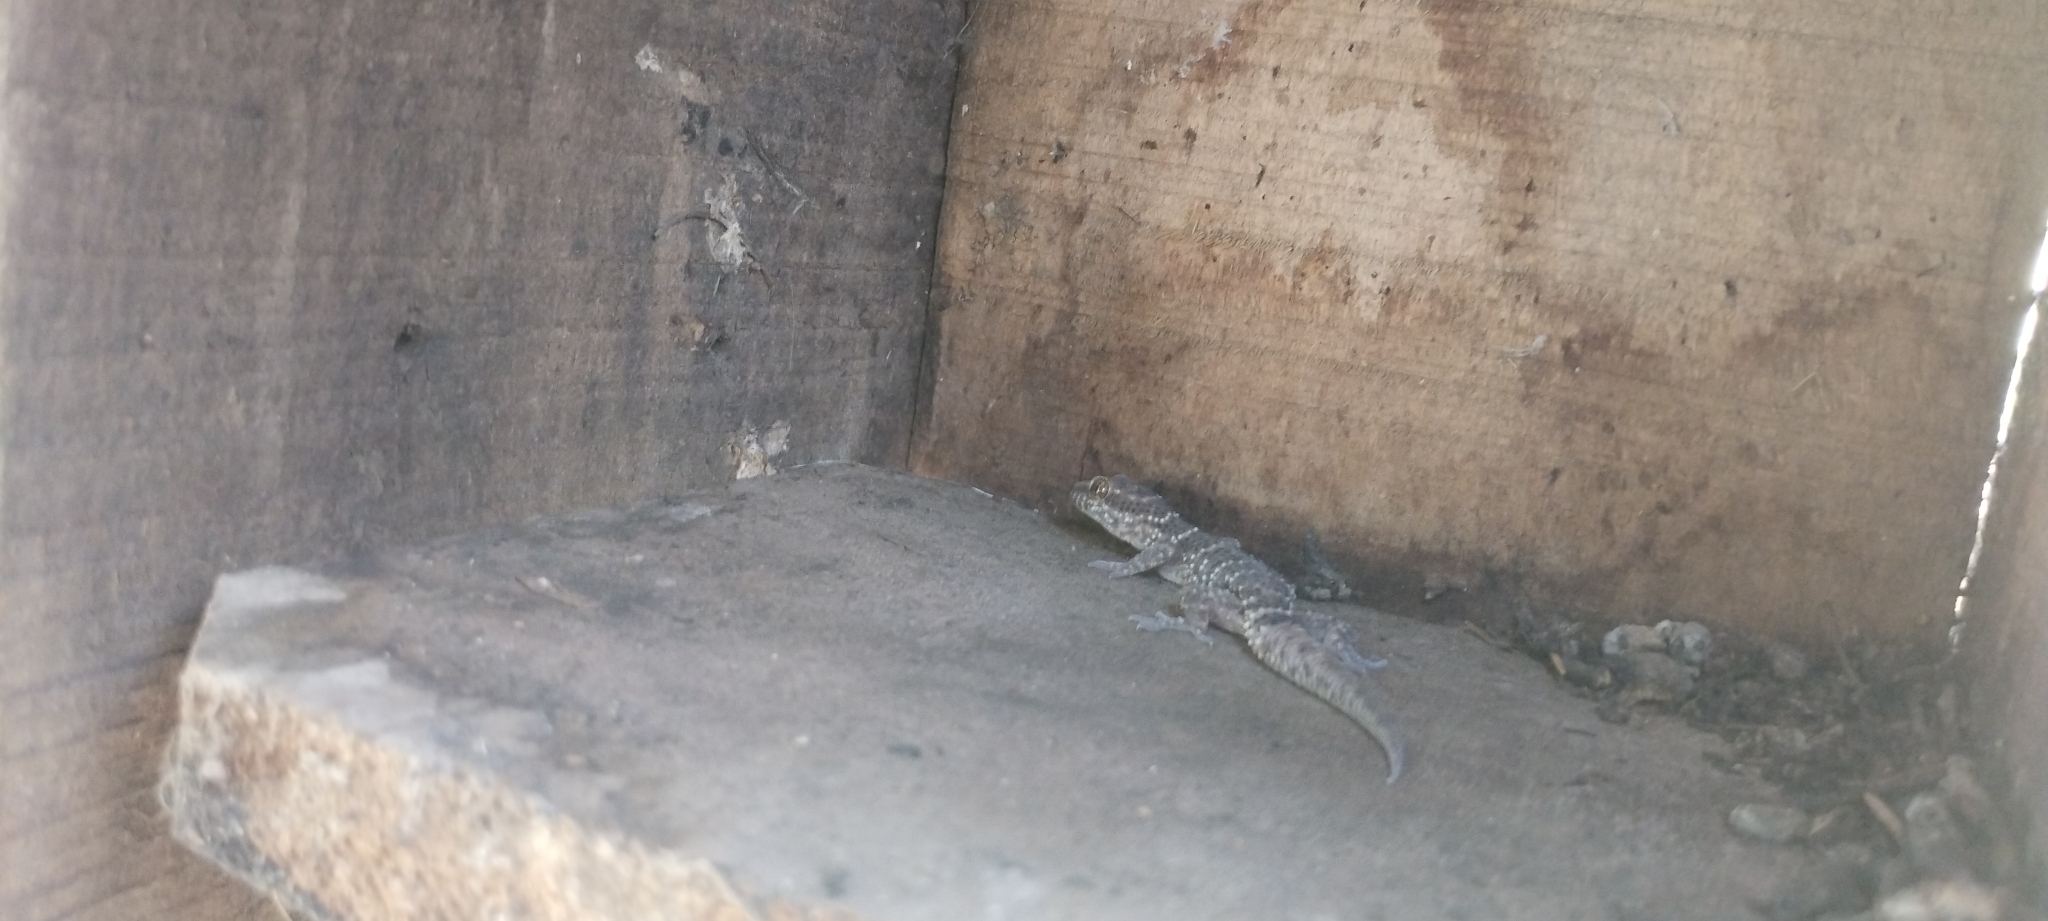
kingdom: Animalia
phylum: Chordata
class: Squamata
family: Phyllodactylidae
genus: Homonota
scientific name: Homonota horrida
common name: South american marked gecko
